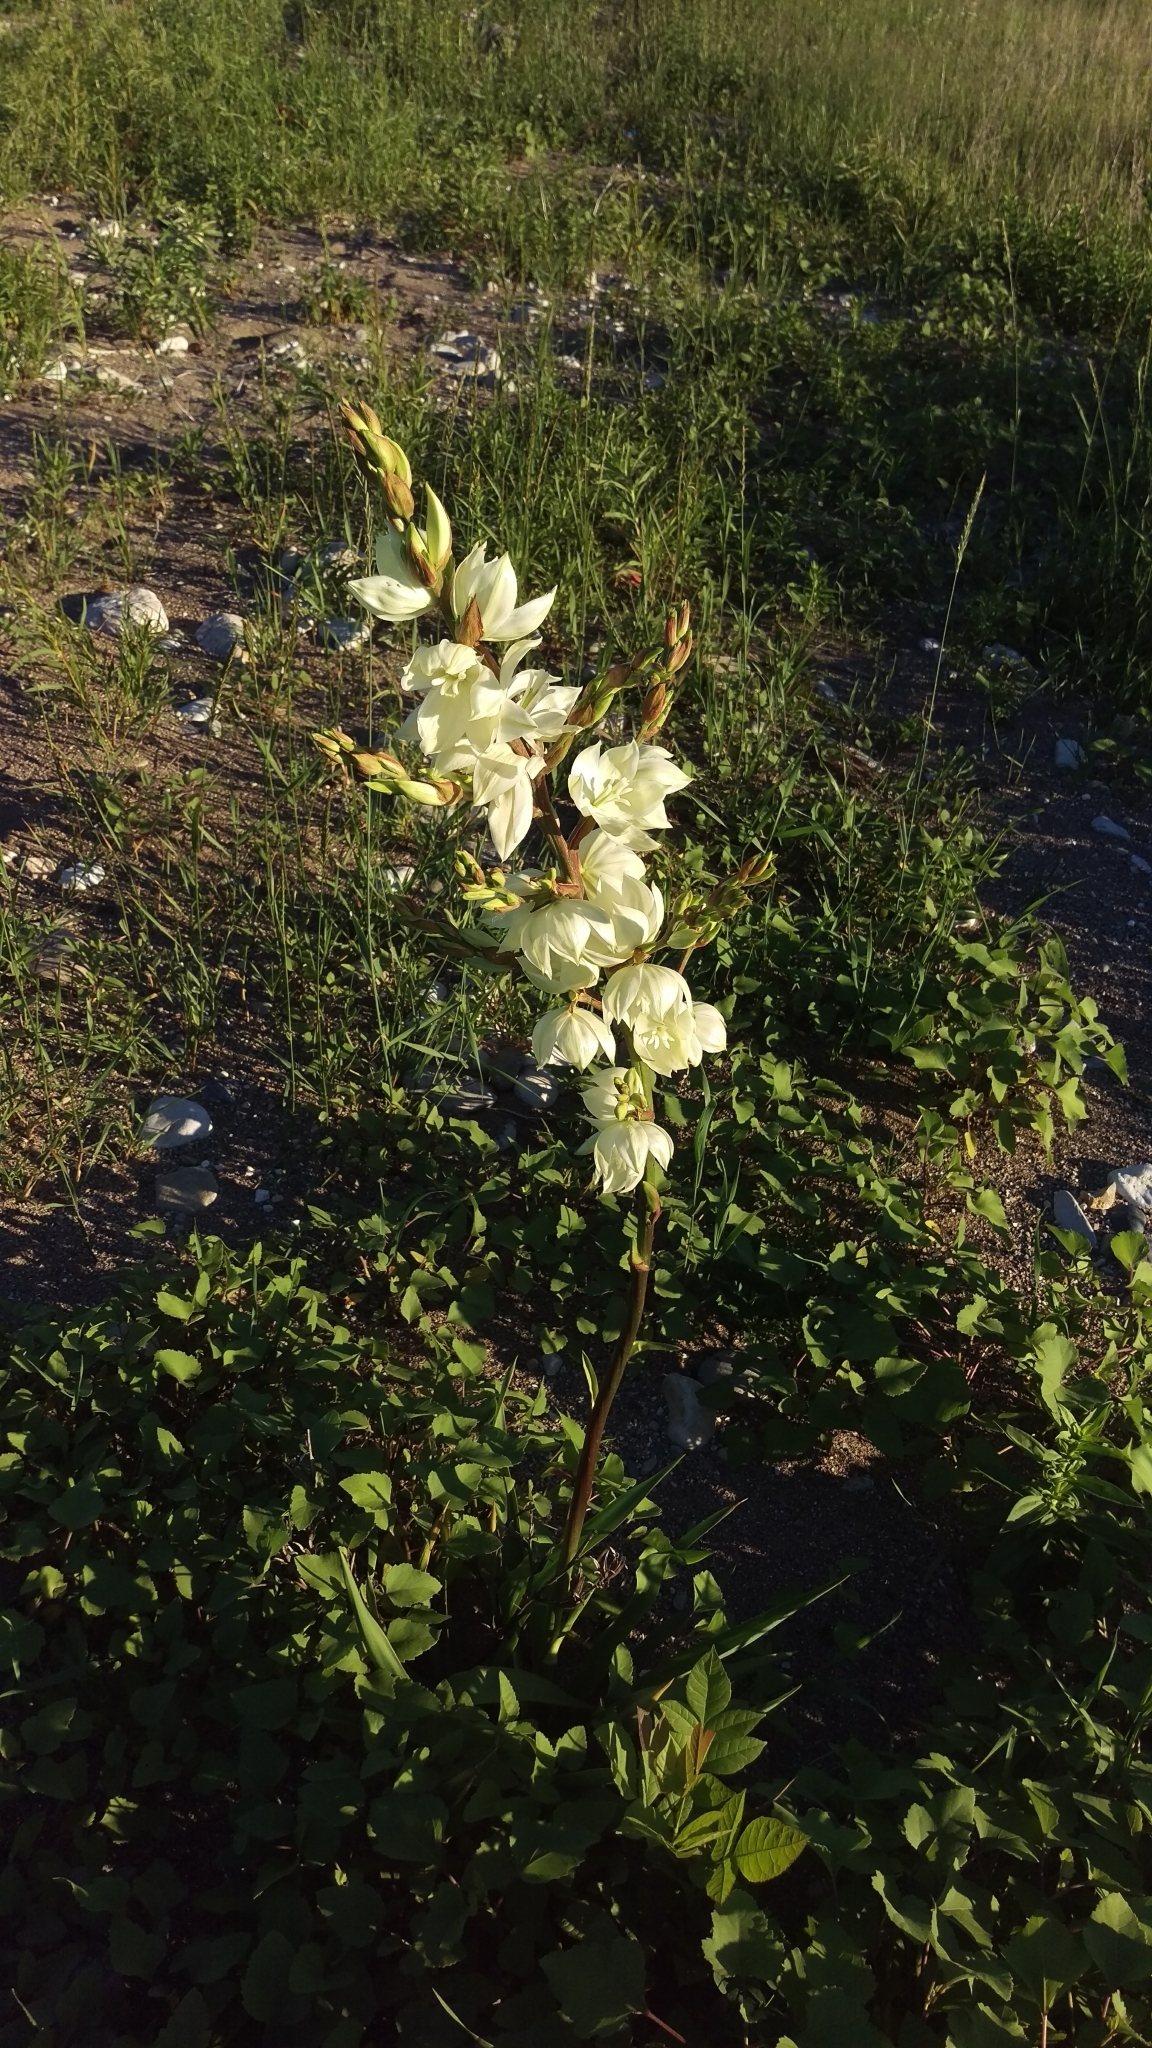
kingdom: Plantae
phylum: Tracheophyta
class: Liliopsida
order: Asparagales
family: Asparagaceae
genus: Yucca
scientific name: Yucca flaccida
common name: Adam's-needle
